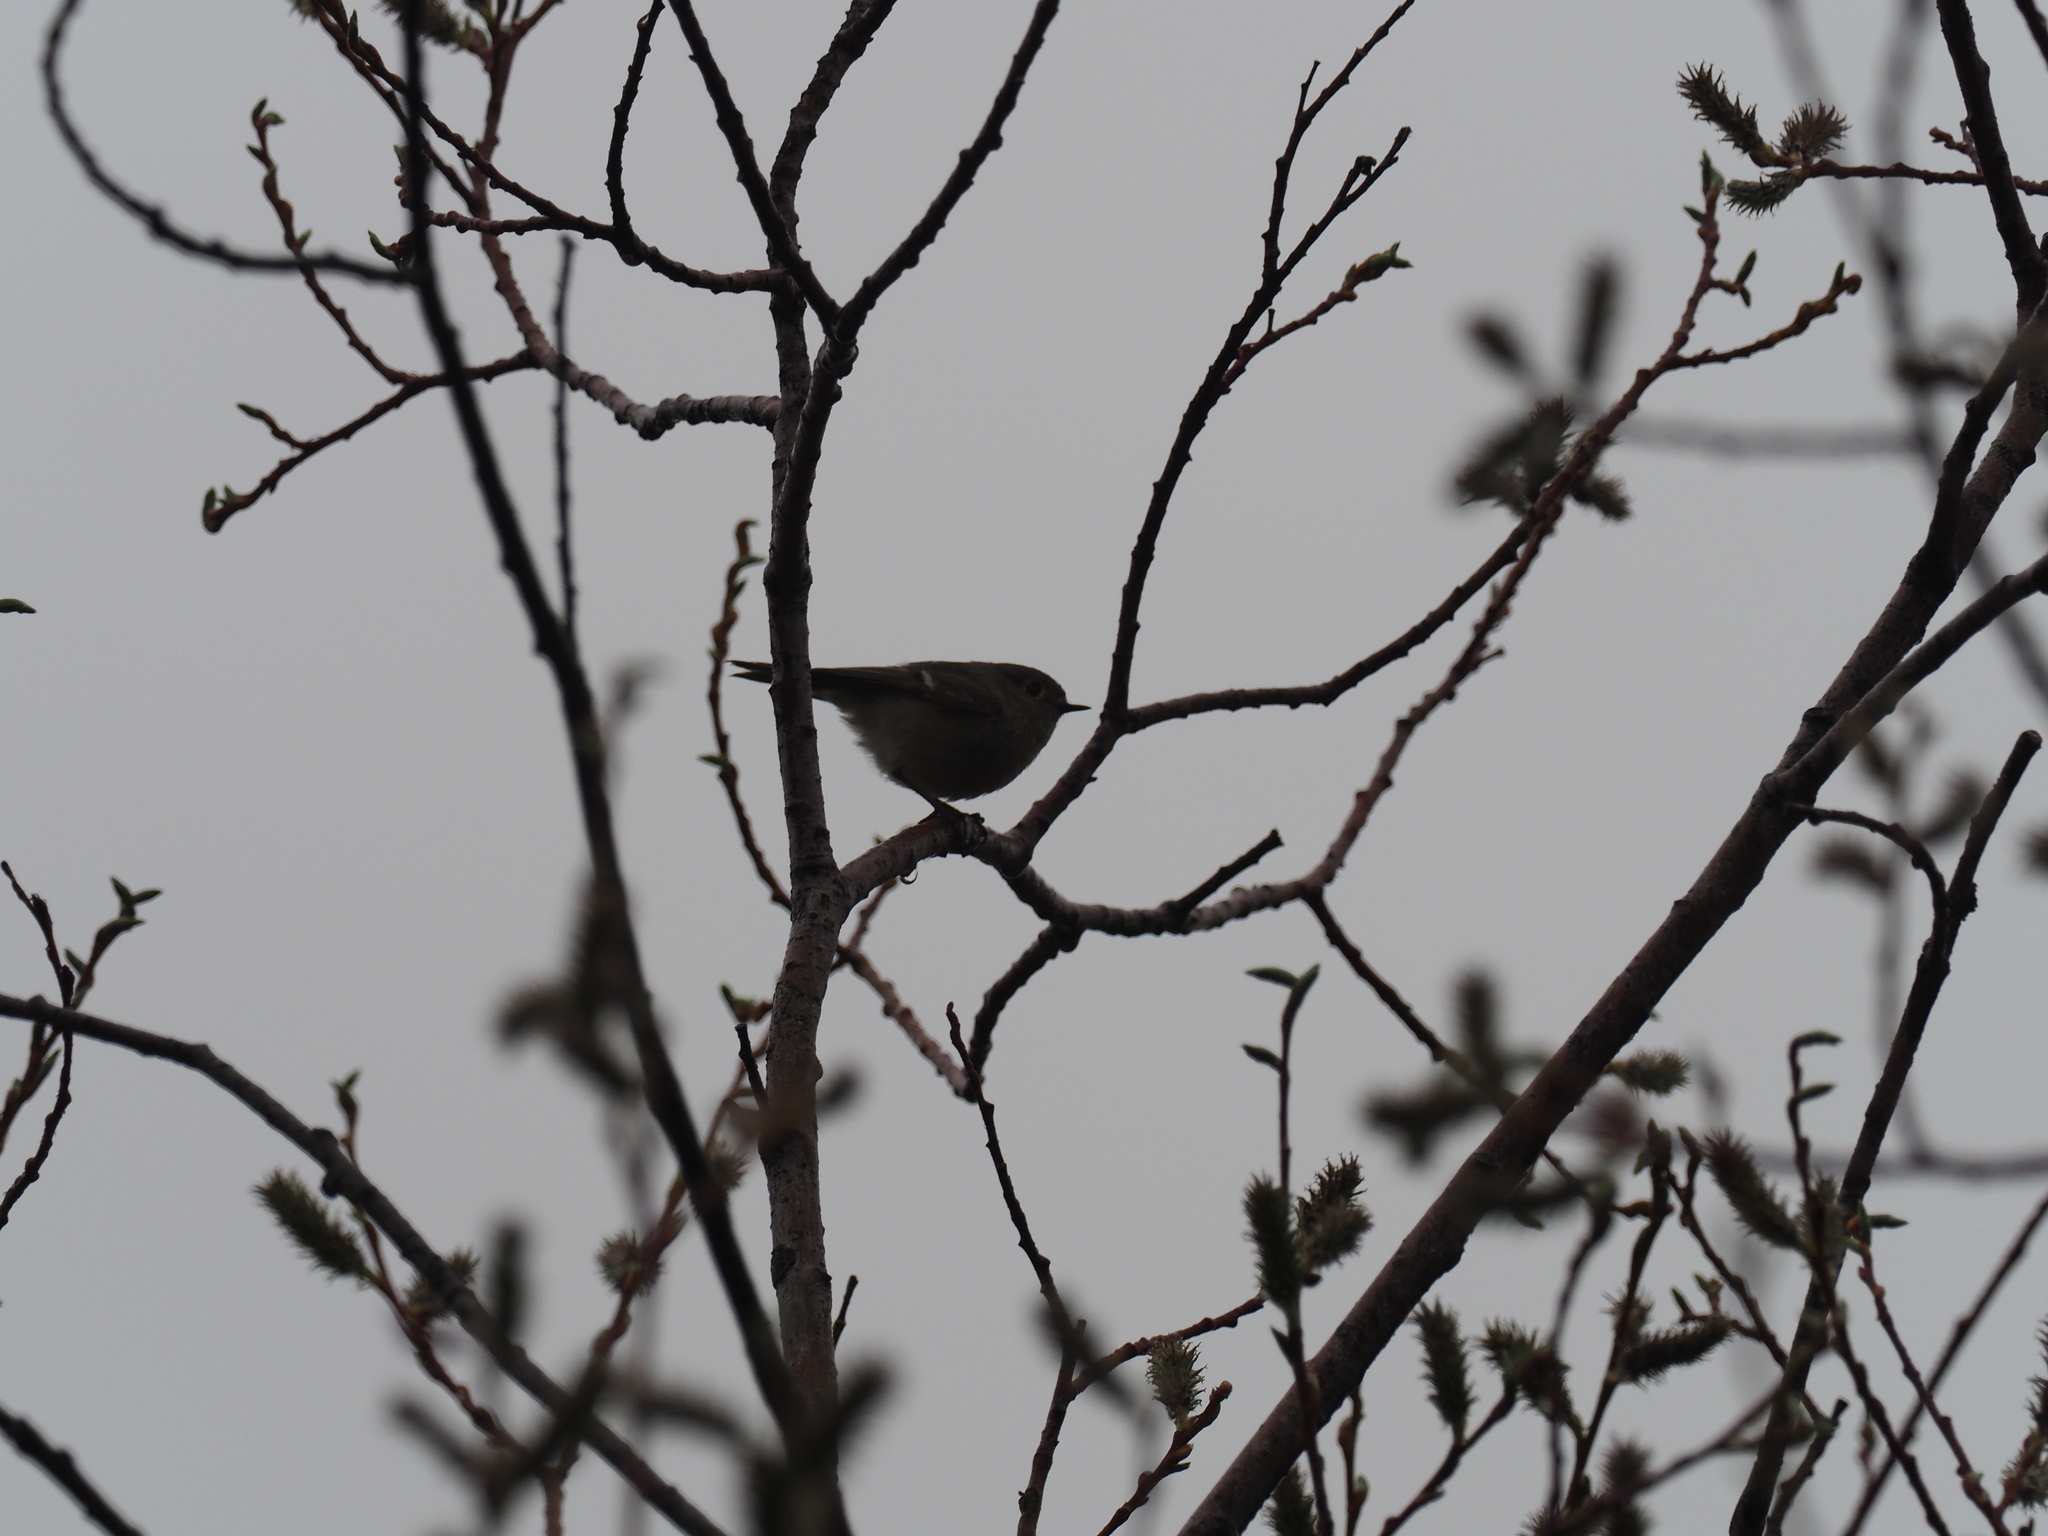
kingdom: Animalia
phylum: Chordata
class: Aves
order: Passeriformes
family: Regulidae
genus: Regulus
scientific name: Regulus calendula
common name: Ruby-crowned kinglet
